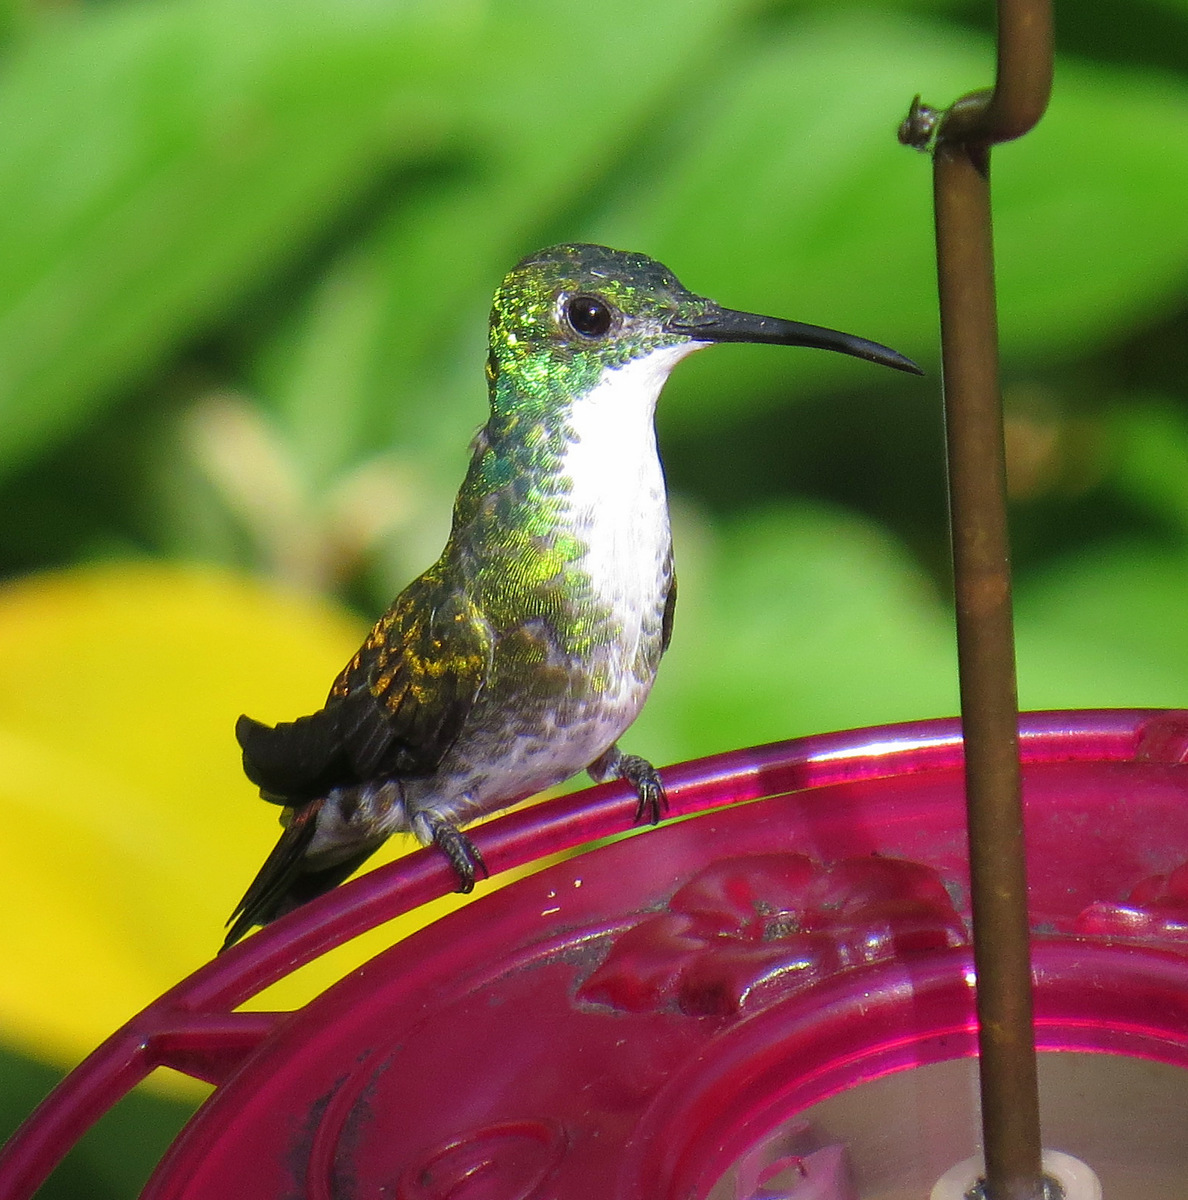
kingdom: Animalia
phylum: Chordata
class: Aves
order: Apodiformes
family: Trochilidae
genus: Chrysuronia
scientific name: Chrysuronia brevirostris
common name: White-chested emerald
